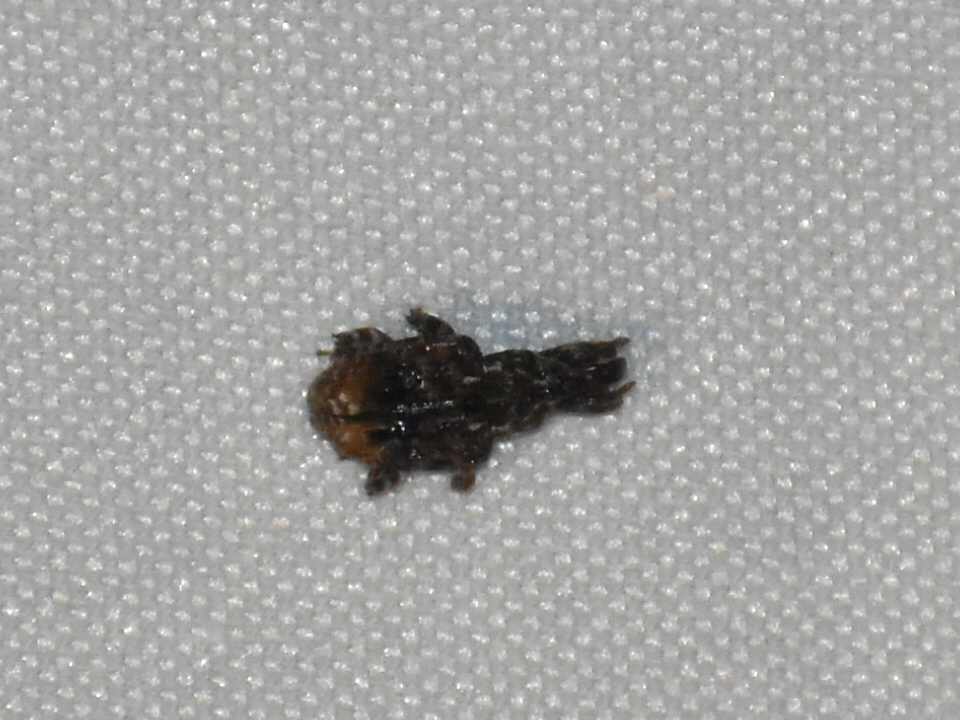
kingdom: Animalia
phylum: Arthropoda
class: Insecta
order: Coleoptera
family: Curculionidae
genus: Conotrachelus
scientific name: Conotrachelus nenuphar
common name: Plum curculio
